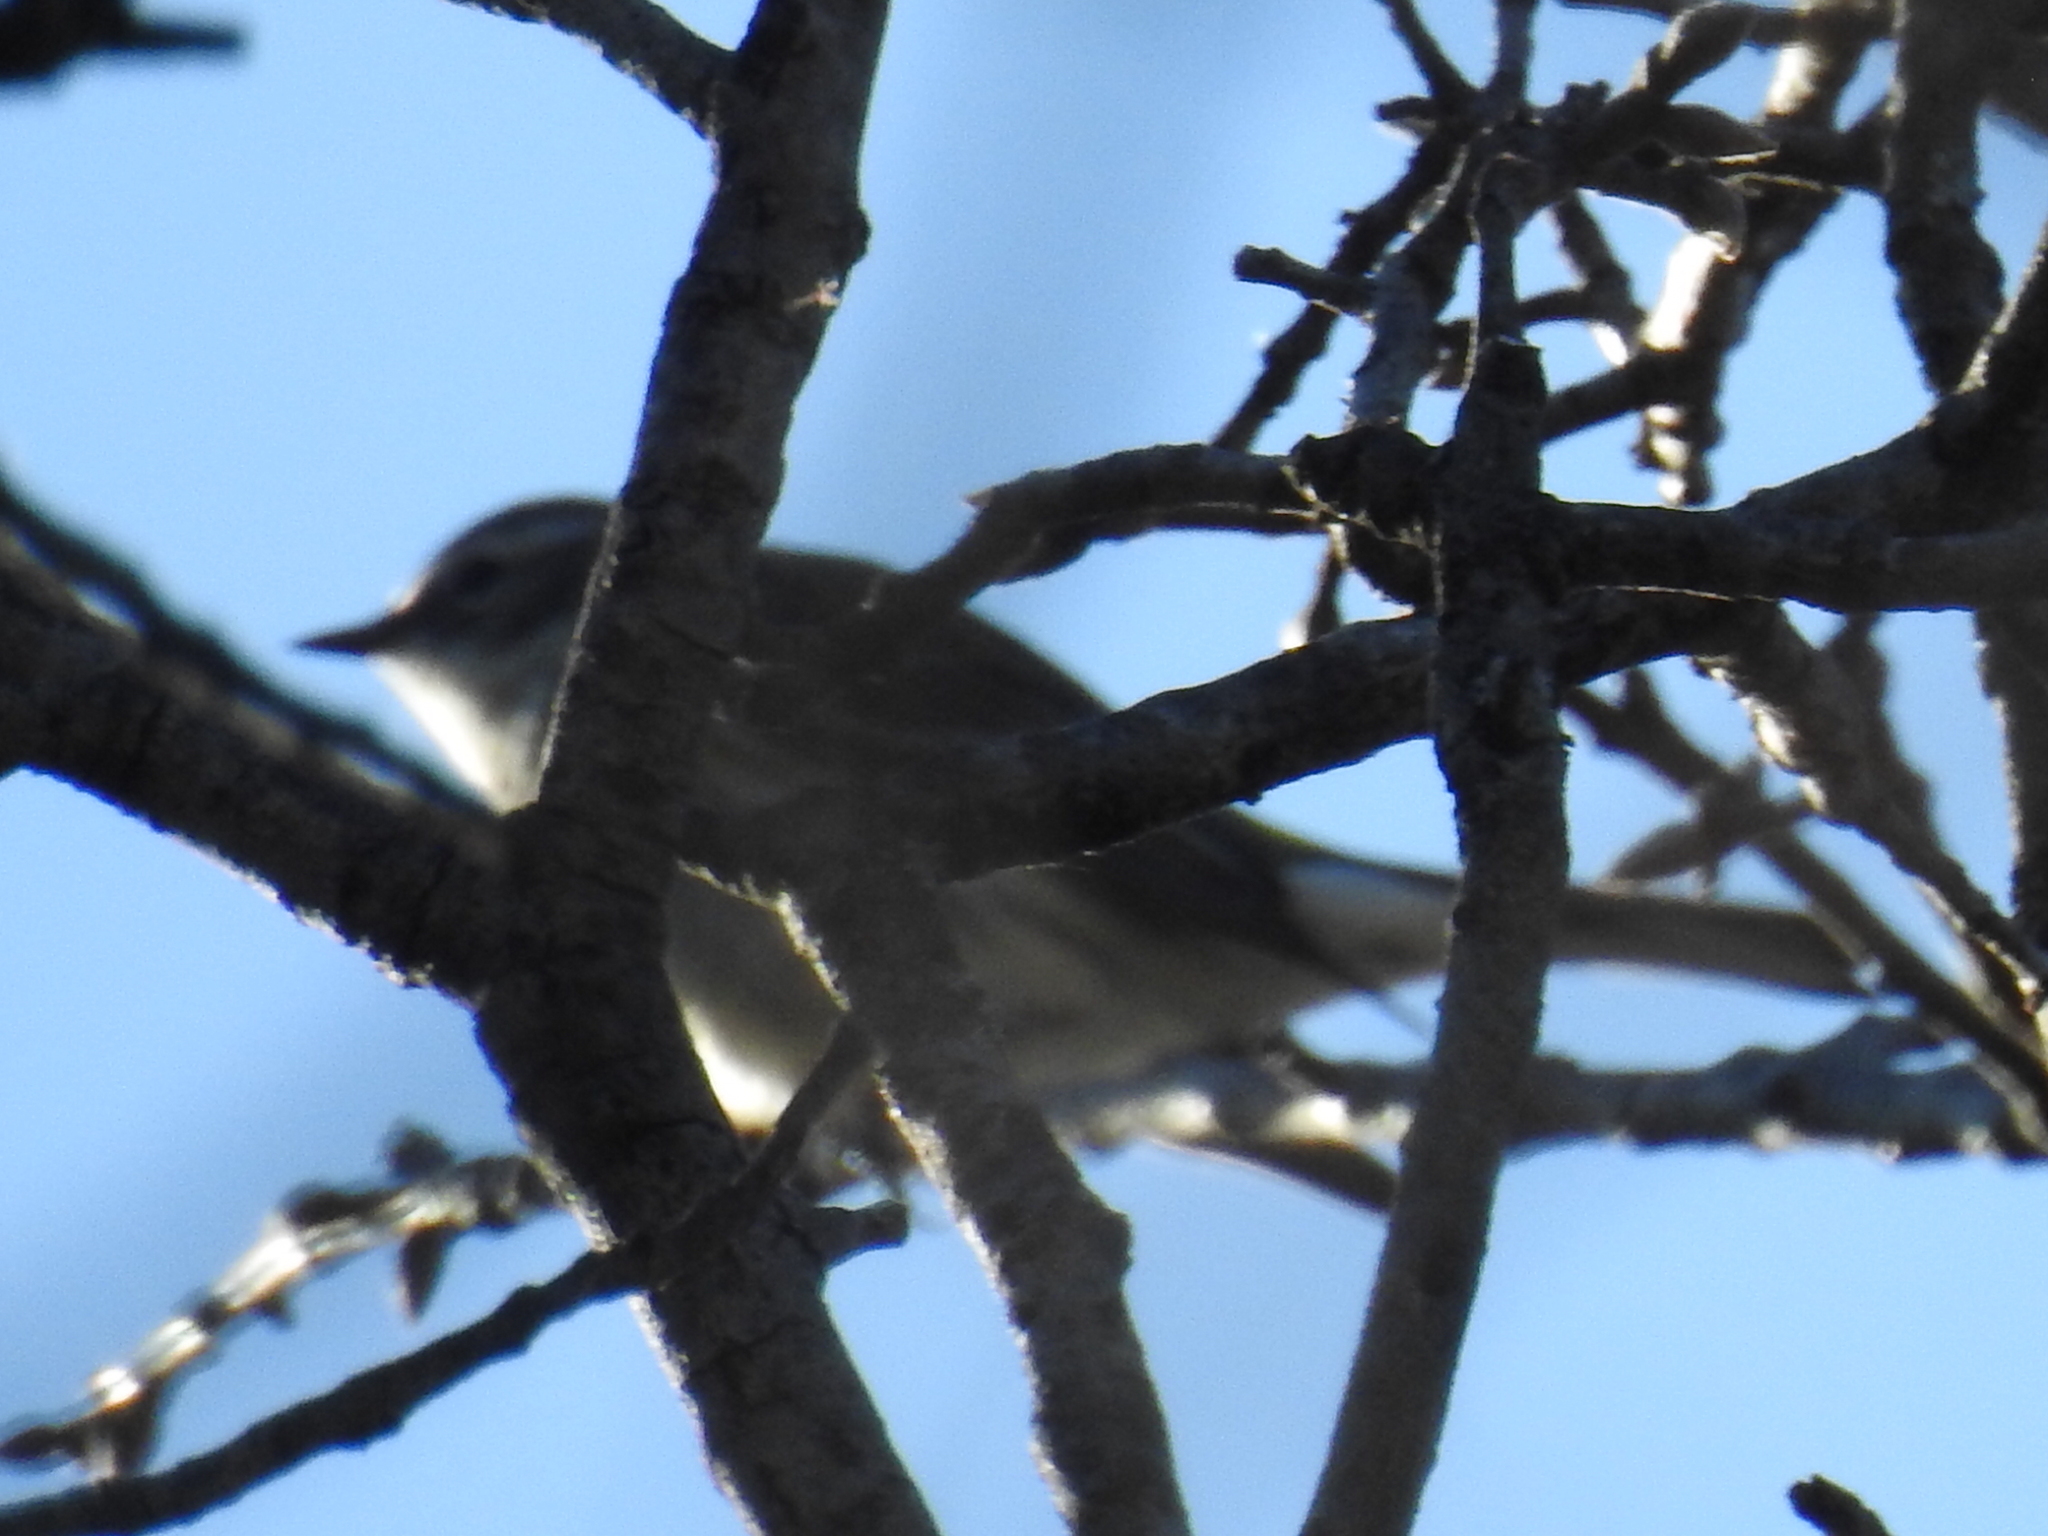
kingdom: Animalia
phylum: Chordata
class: Aves
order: Passeriformes
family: Parulidae
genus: Setophaga
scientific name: Setophaga coronata
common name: Myrtle warbler
